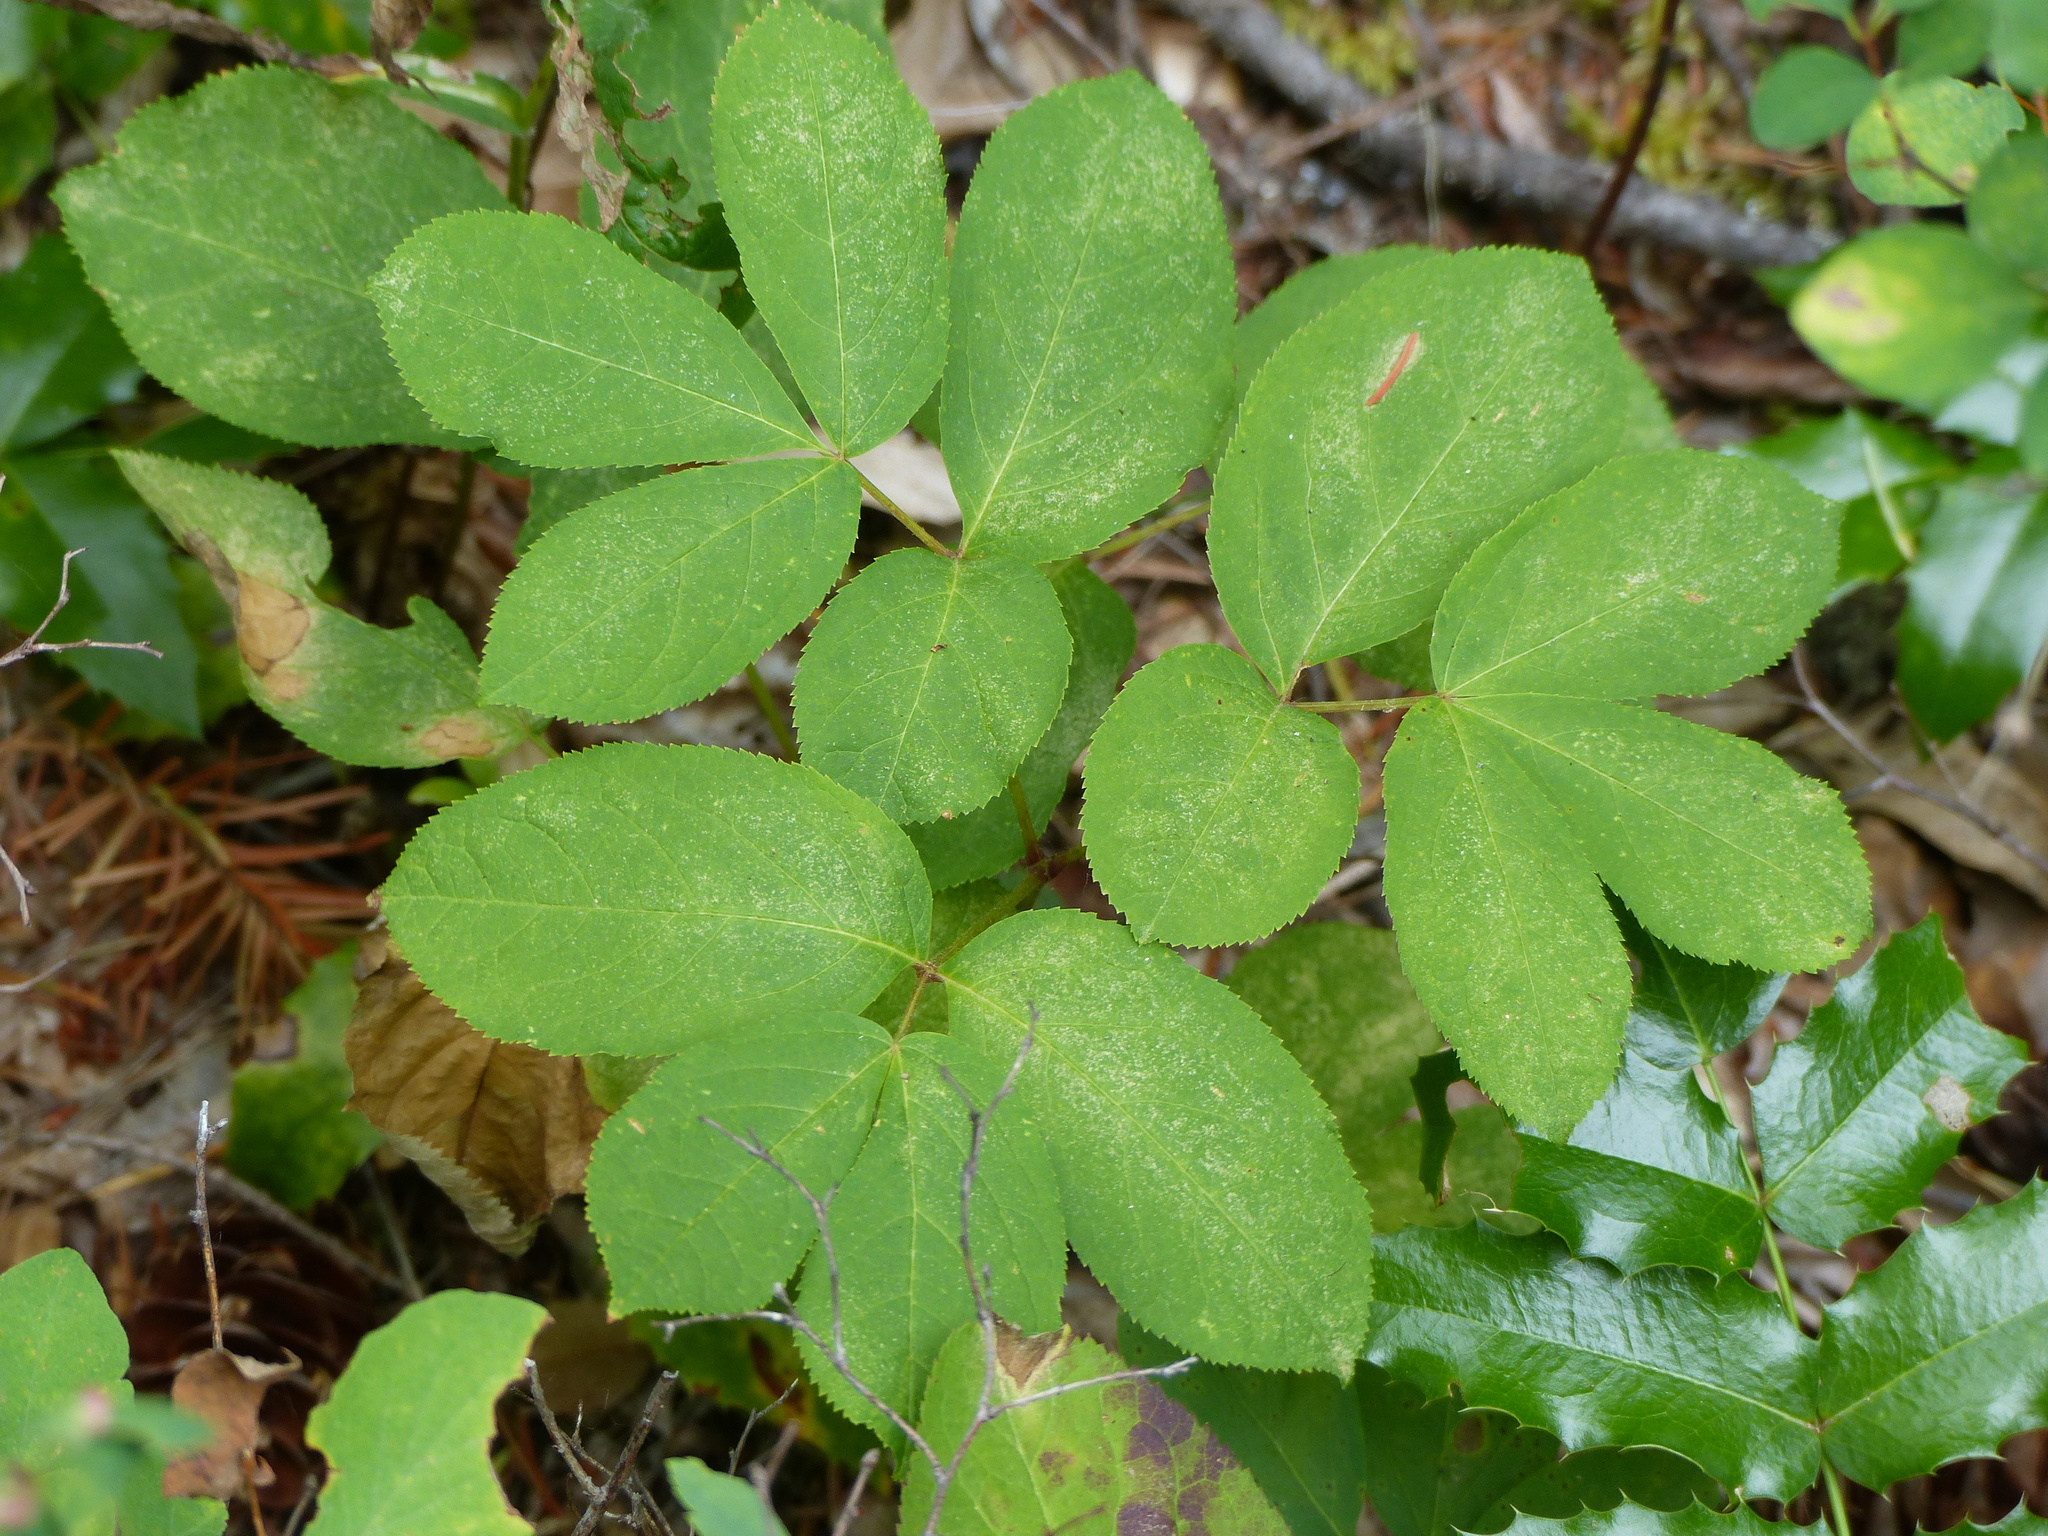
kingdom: Plantae
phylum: Tracheophyta
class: Magnoliopsida
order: Apiales
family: Araliaceae
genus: Aralia
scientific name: Aralia nudicaulis
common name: Wild sarsaparilla
